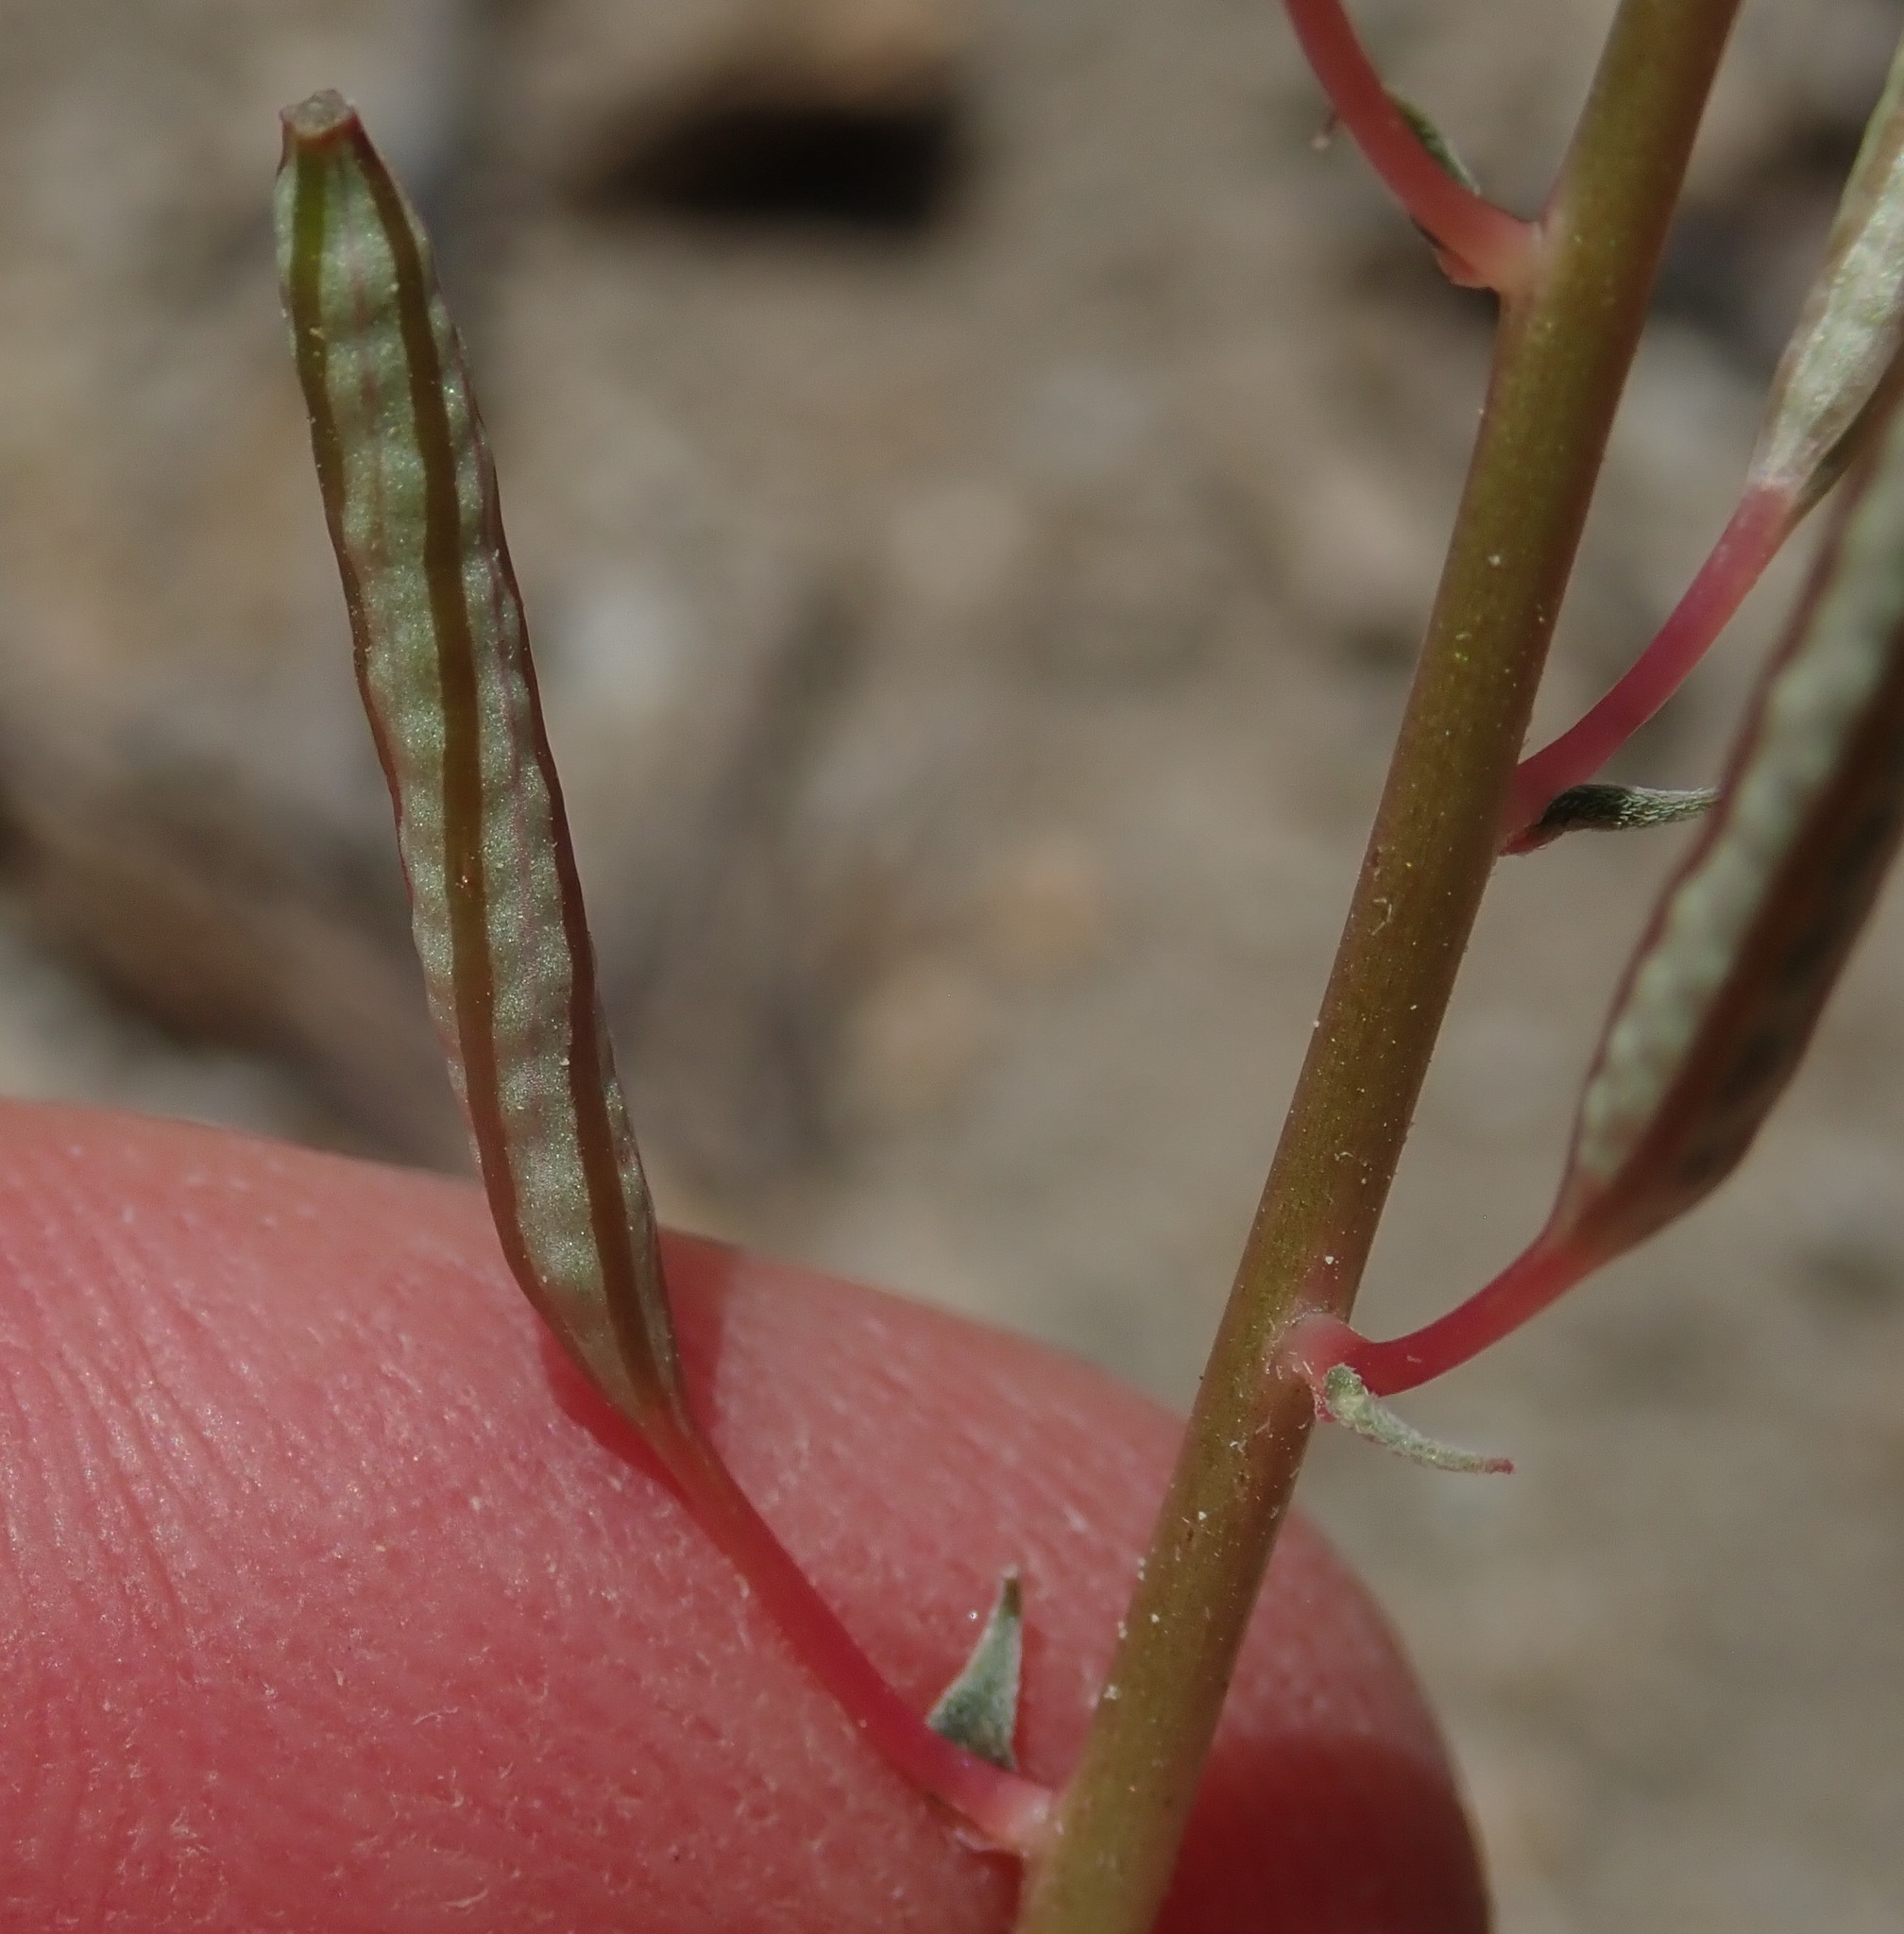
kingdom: Plantae
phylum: Tracheophyta
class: Magnoliopsida
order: Myrtales
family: Onagraceae
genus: Chylismia
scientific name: Chylismia claviformis
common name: Browneyes
